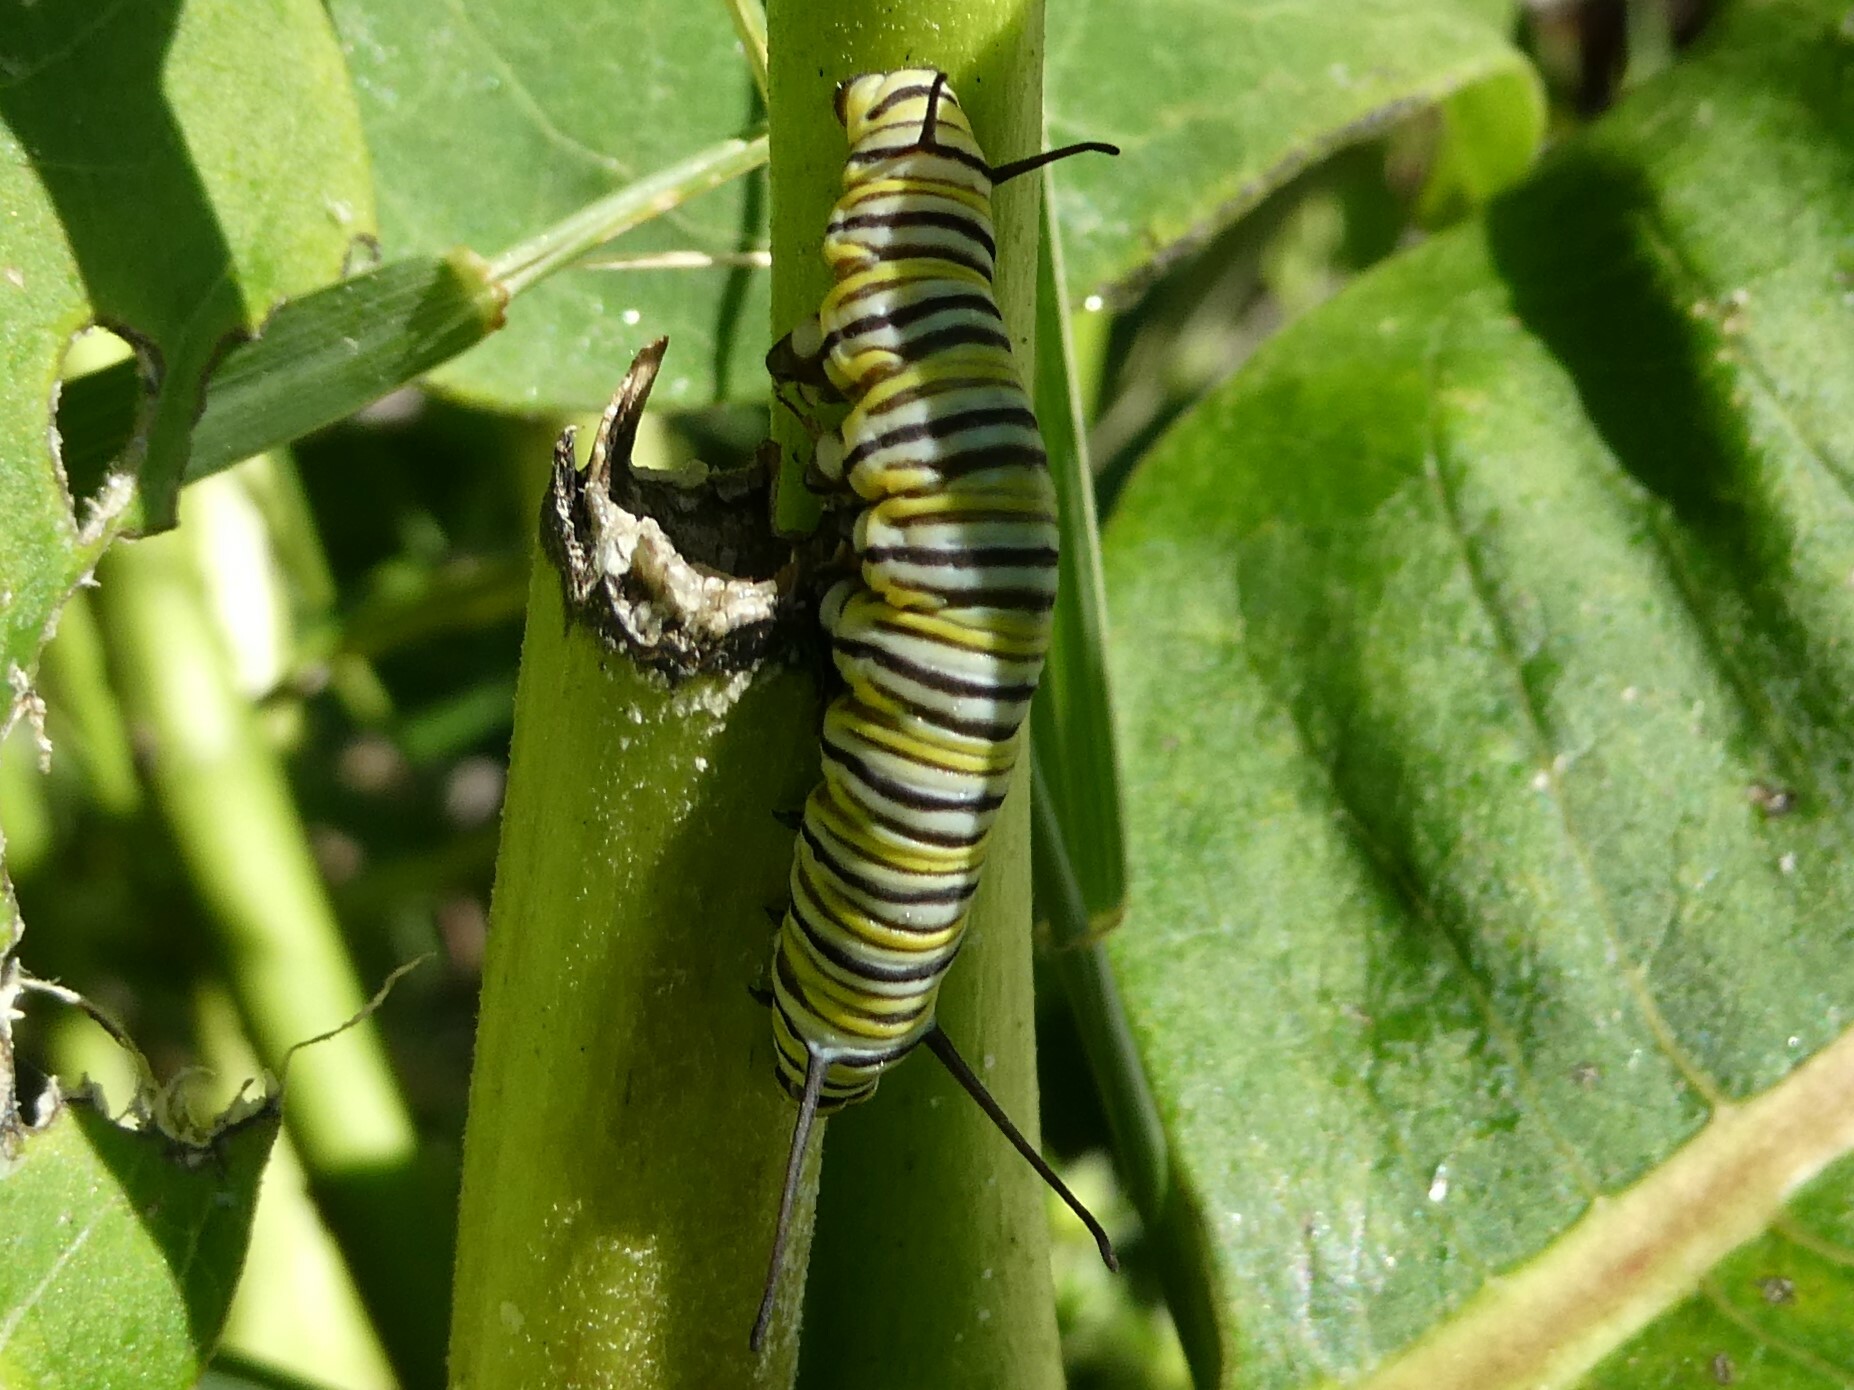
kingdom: Animalia
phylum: Arthropoda
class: Insecta
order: Lepidoptera
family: Nymphalidae
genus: Danaus
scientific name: Danaus plexippus
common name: Monarch
